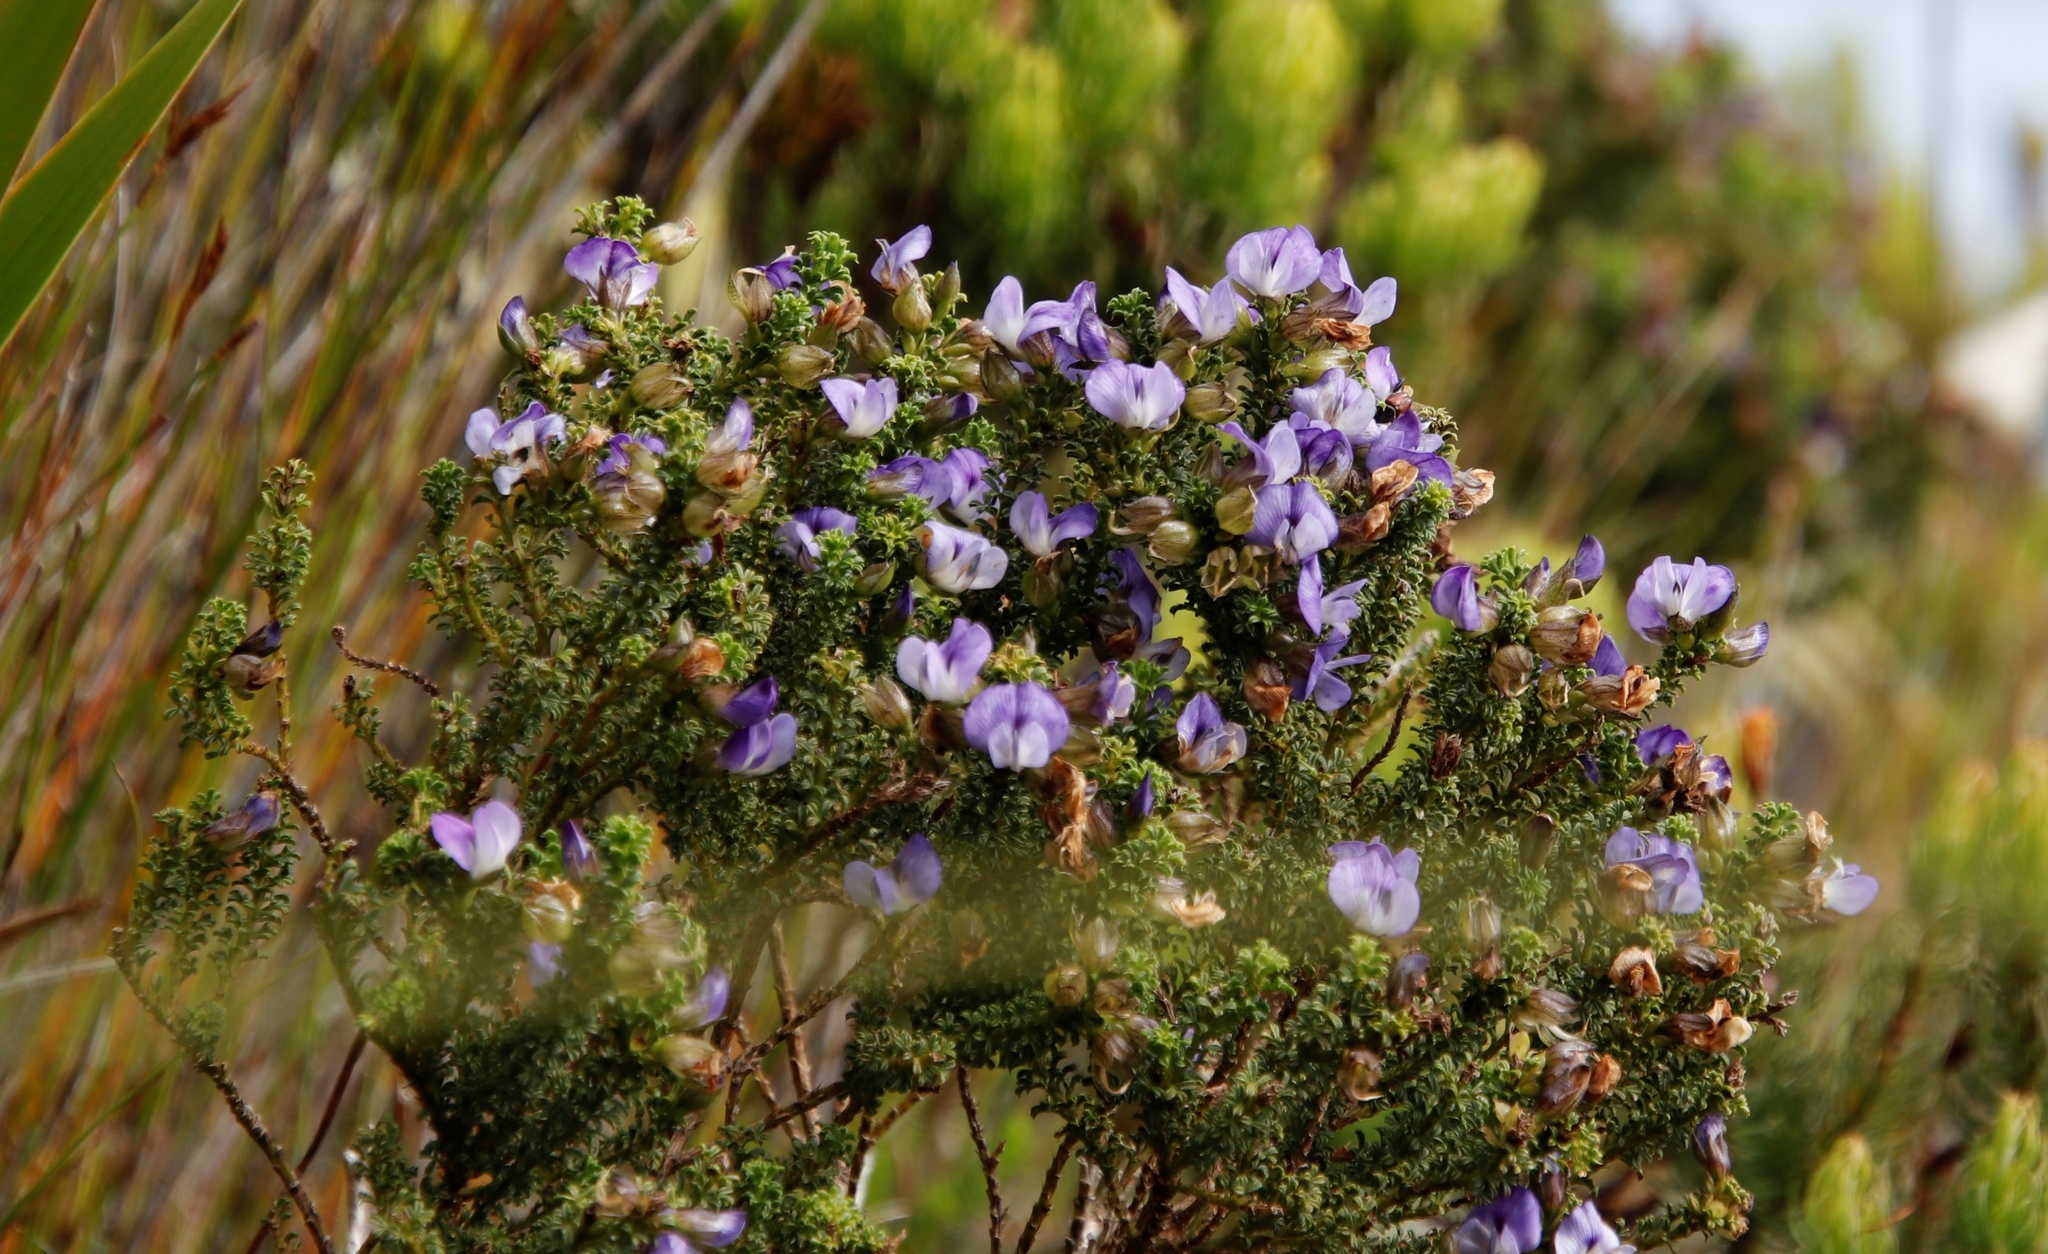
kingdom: Plantae
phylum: Tracheophyta
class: Magnoliopsida
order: Fabales
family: Fabaceae
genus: Psoralea
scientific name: Psoralea aculeata
